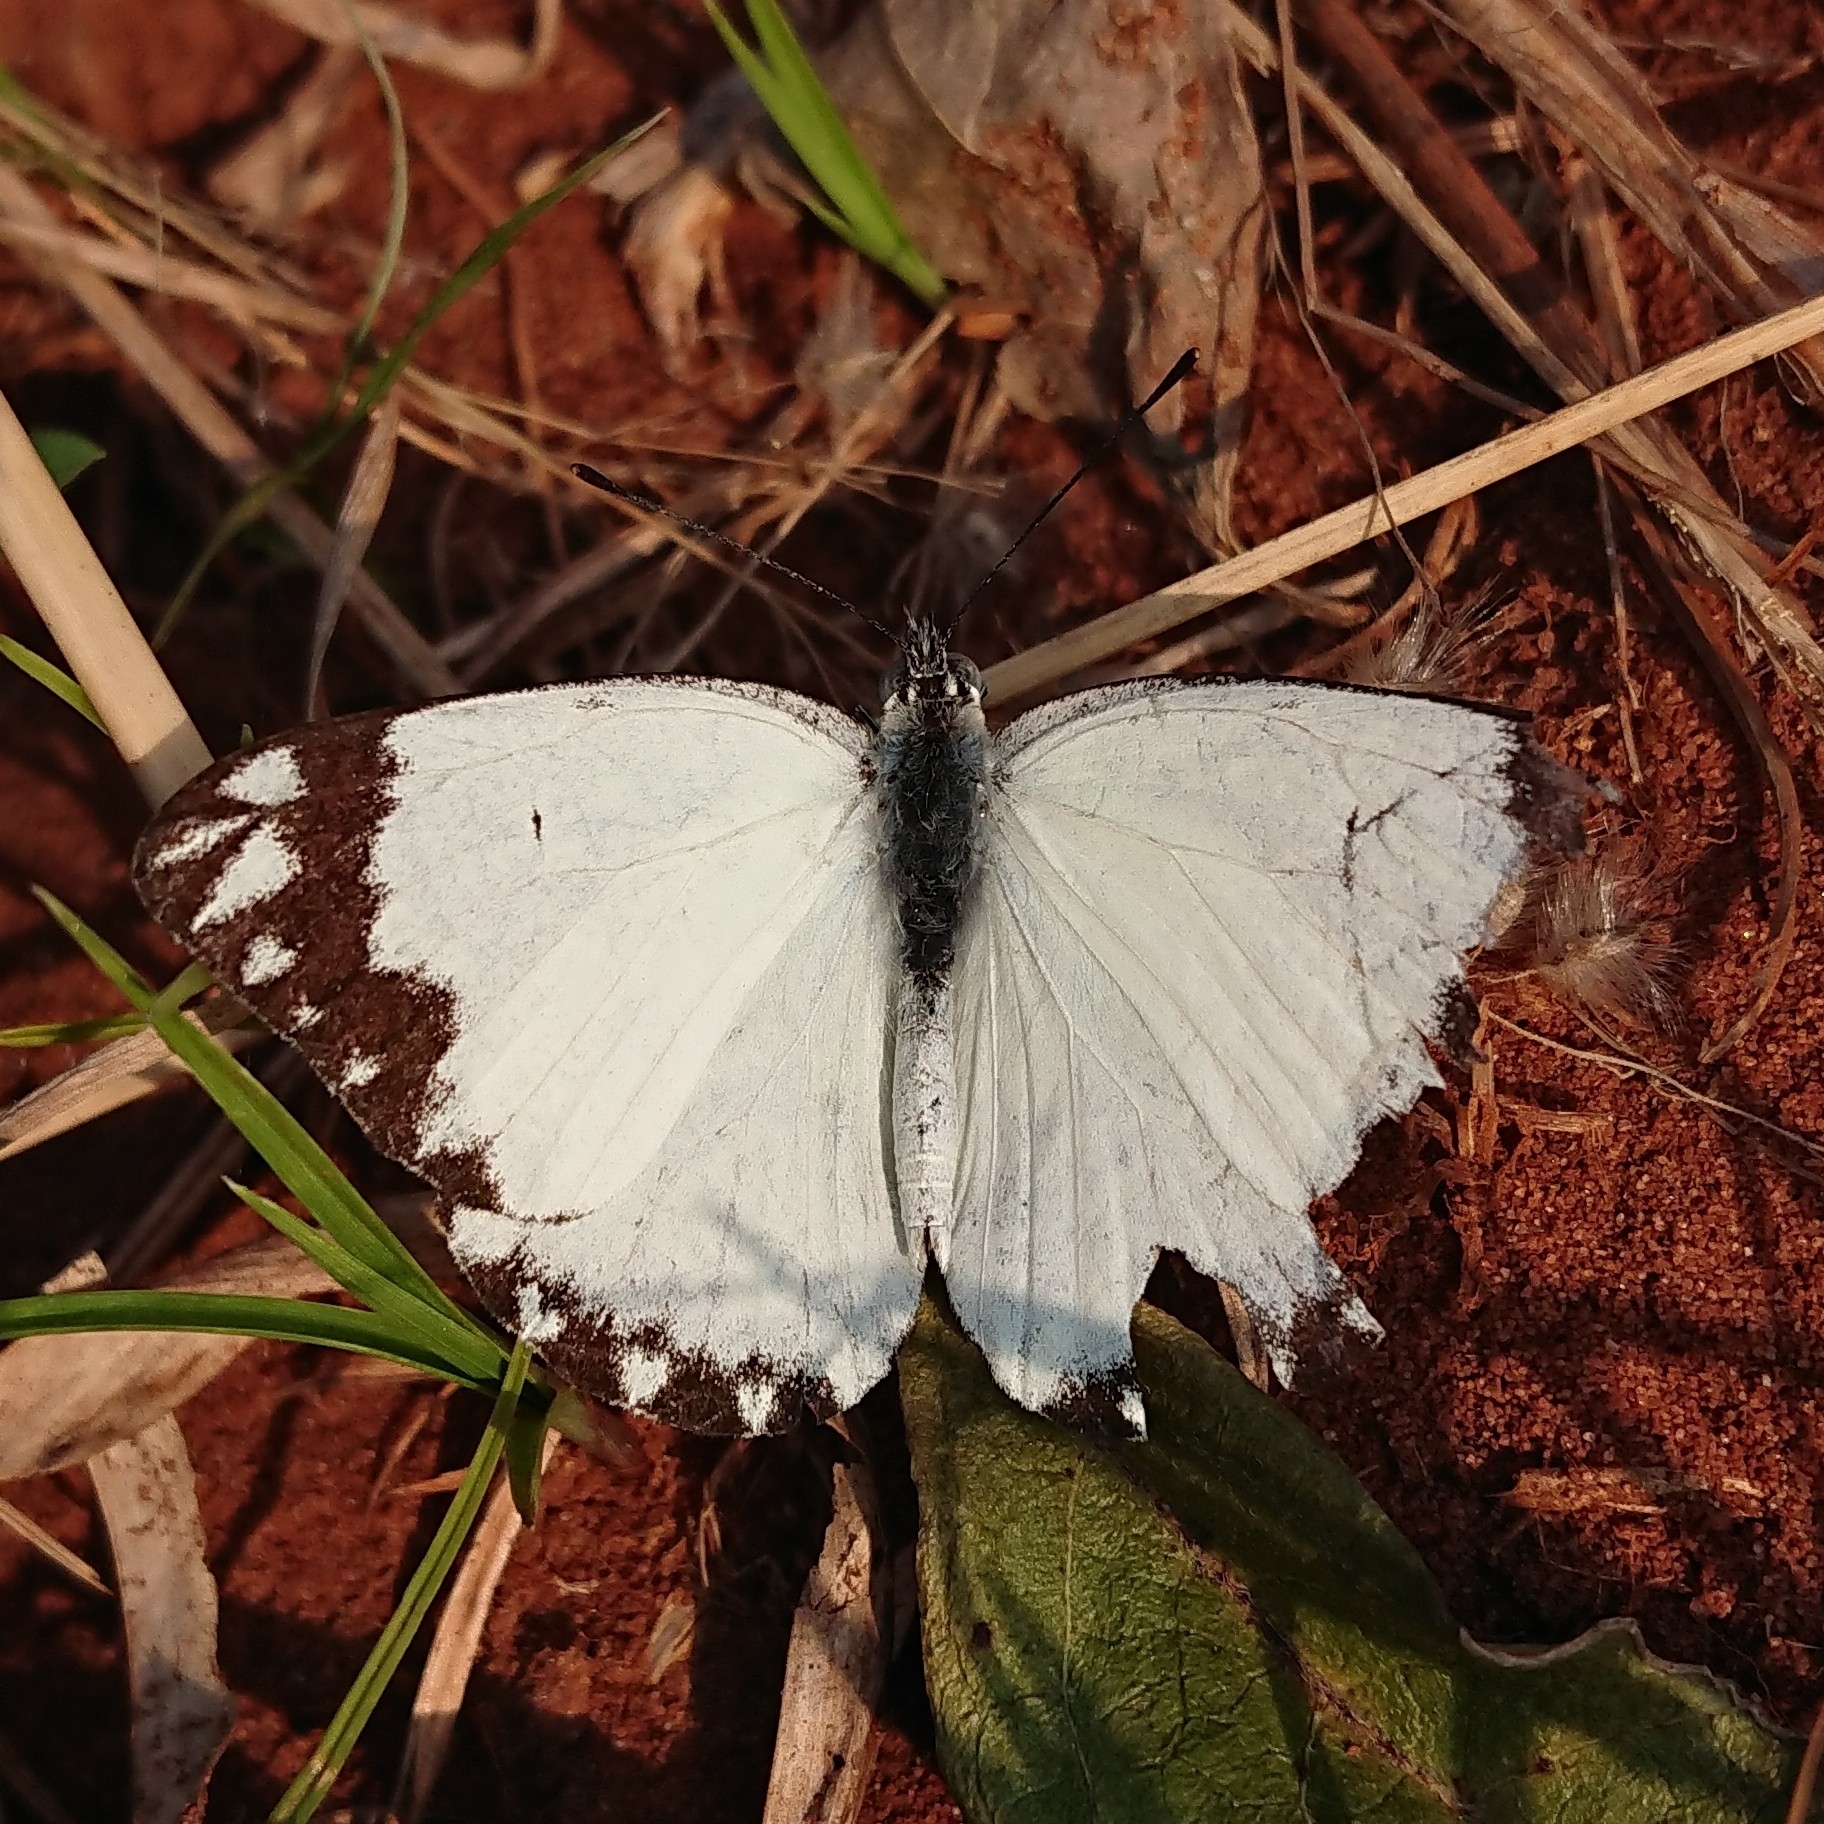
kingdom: Animalia
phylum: Arthropoda
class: Insecta
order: Lepidoptera
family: Pieridae
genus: Belenois
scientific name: Belenois creona
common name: African caper white
